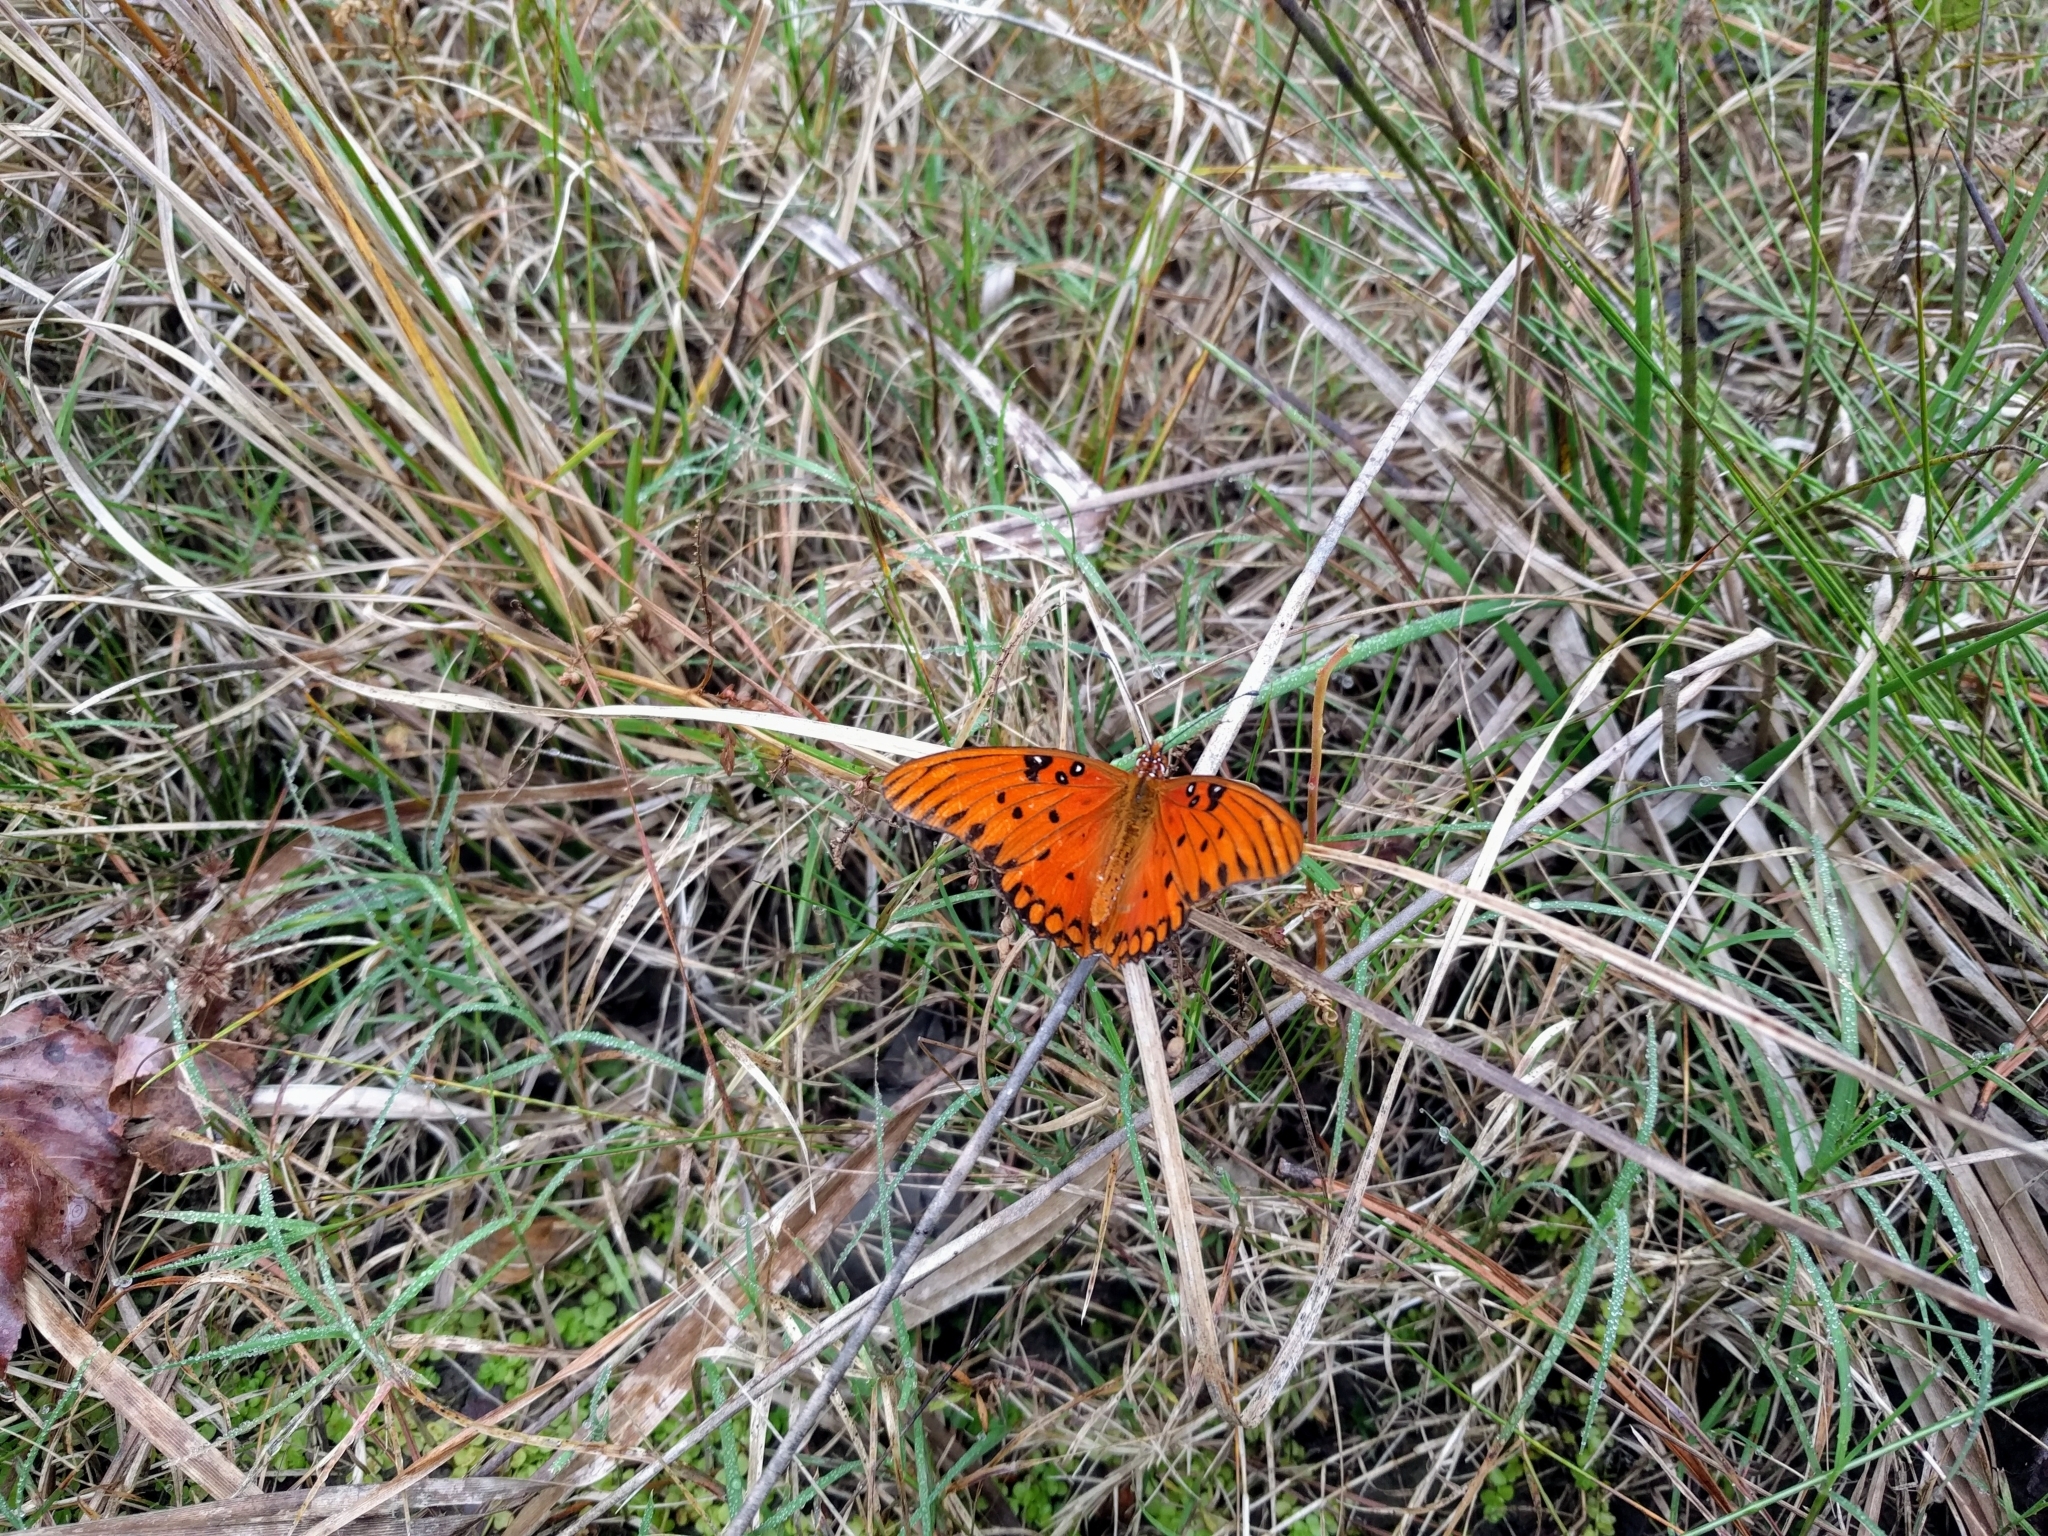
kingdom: Animalia
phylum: Arthropoda
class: Insecta
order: Lepidoptera
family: Nymphalidae
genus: Dione
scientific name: Dione vanillae
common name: Gulf fritillary
